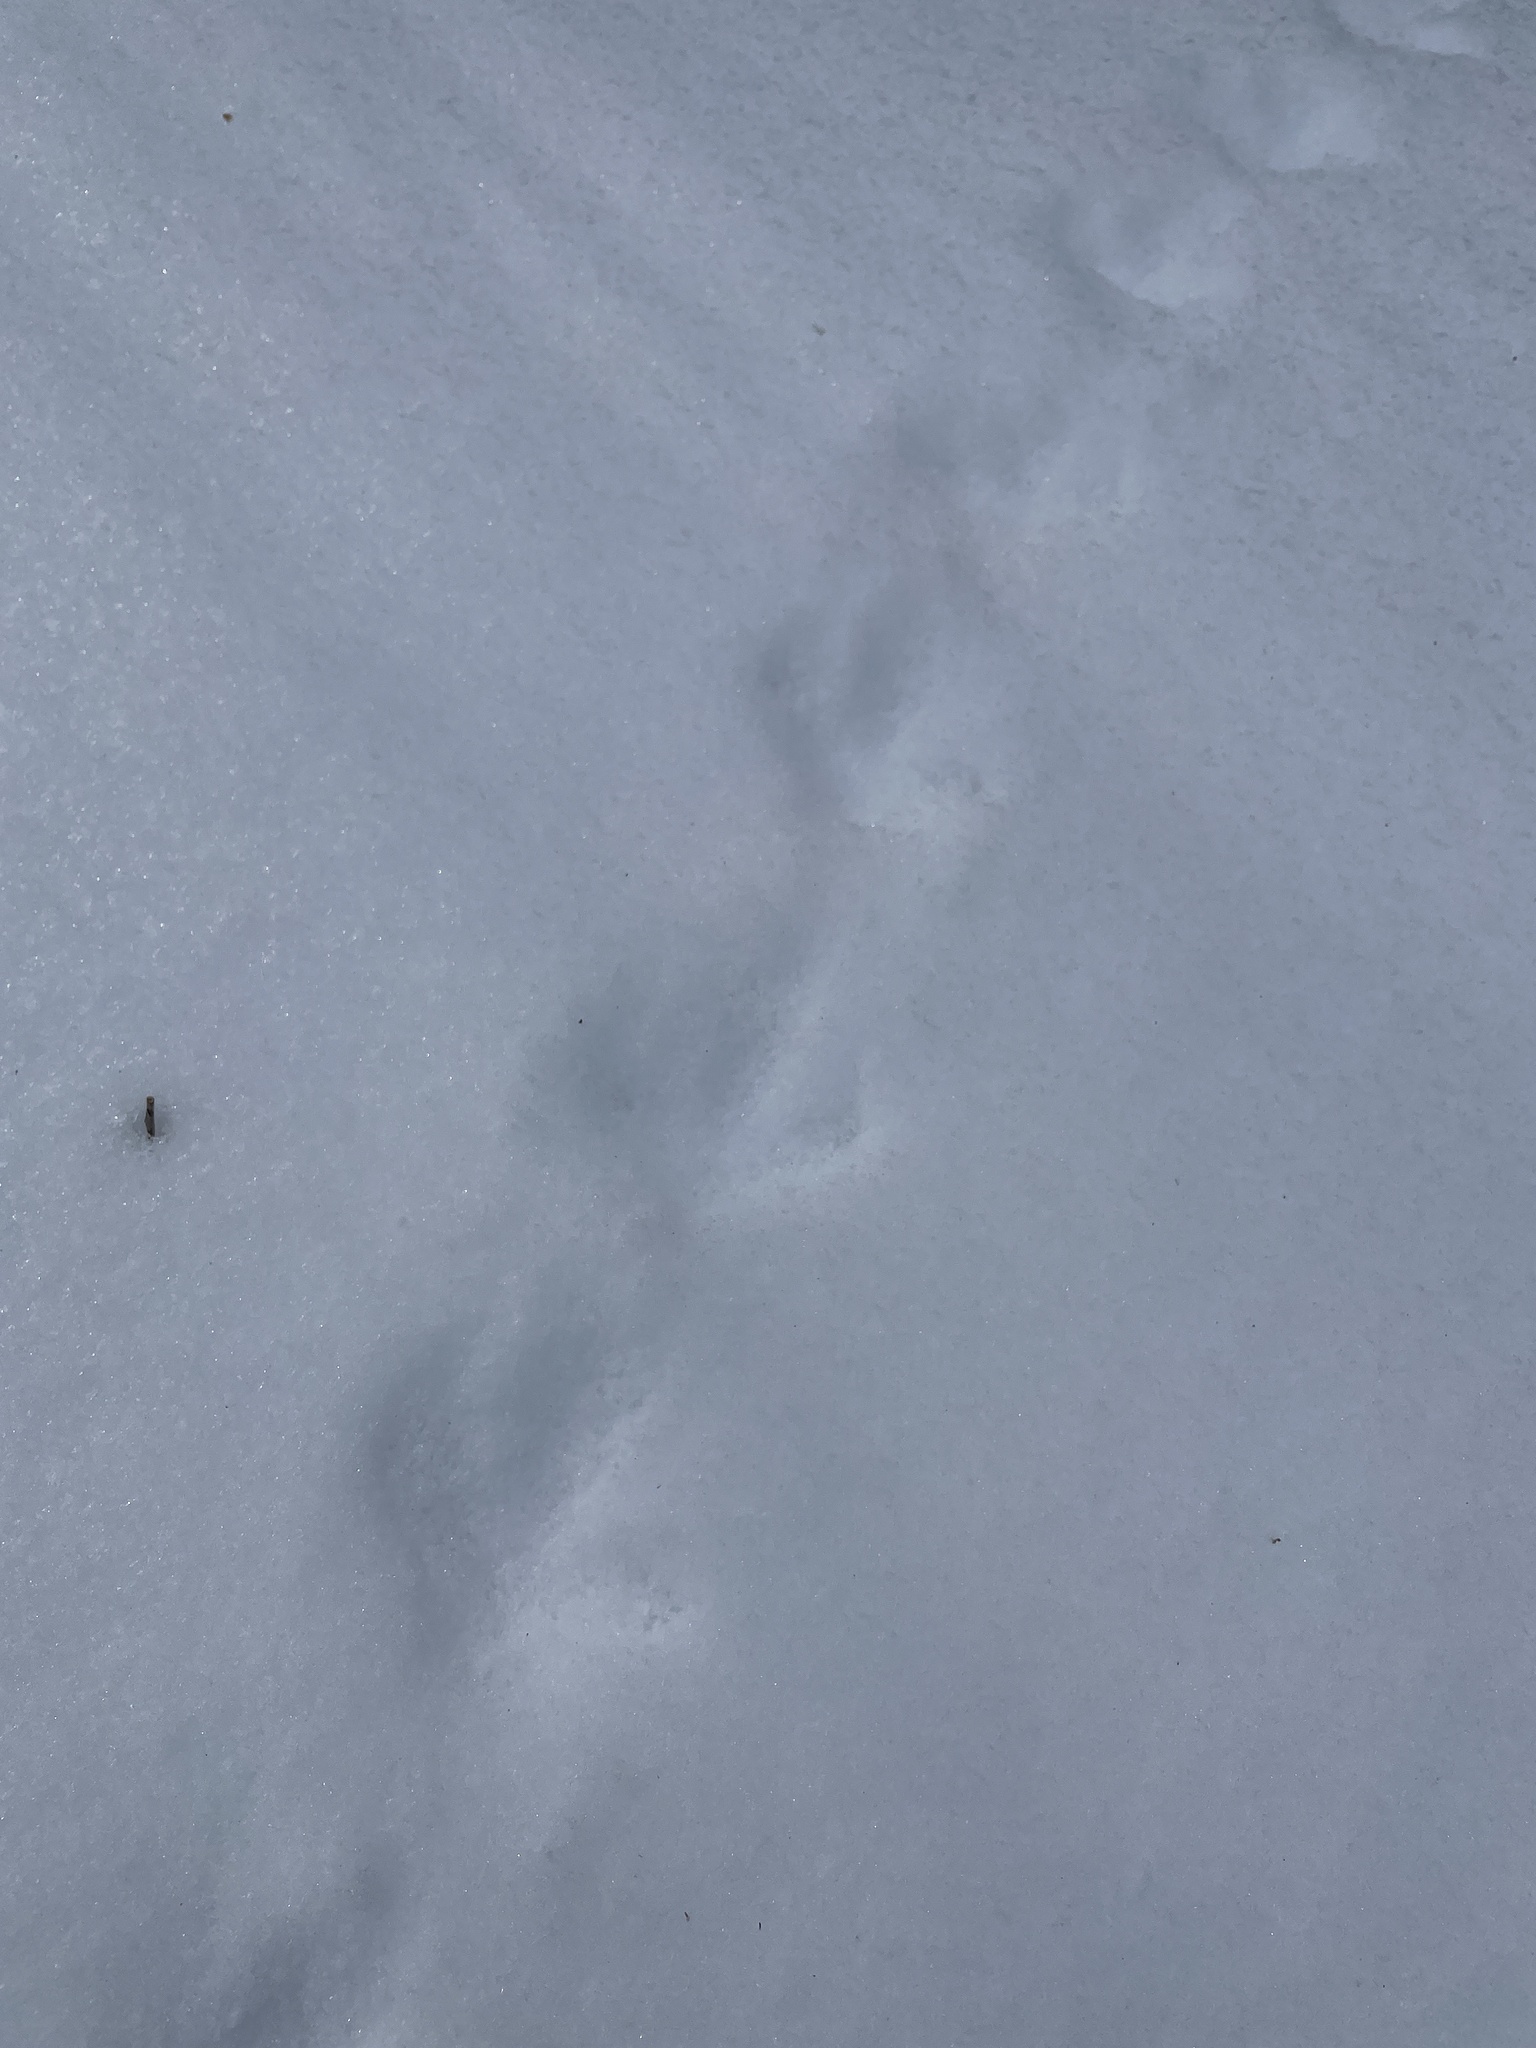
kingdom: Animalia
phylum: Chordata
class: Aves
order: Galliformes
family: Phasianidae
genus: Bonasa
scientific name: Bonasa umbellus
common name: Ruffed grouse
